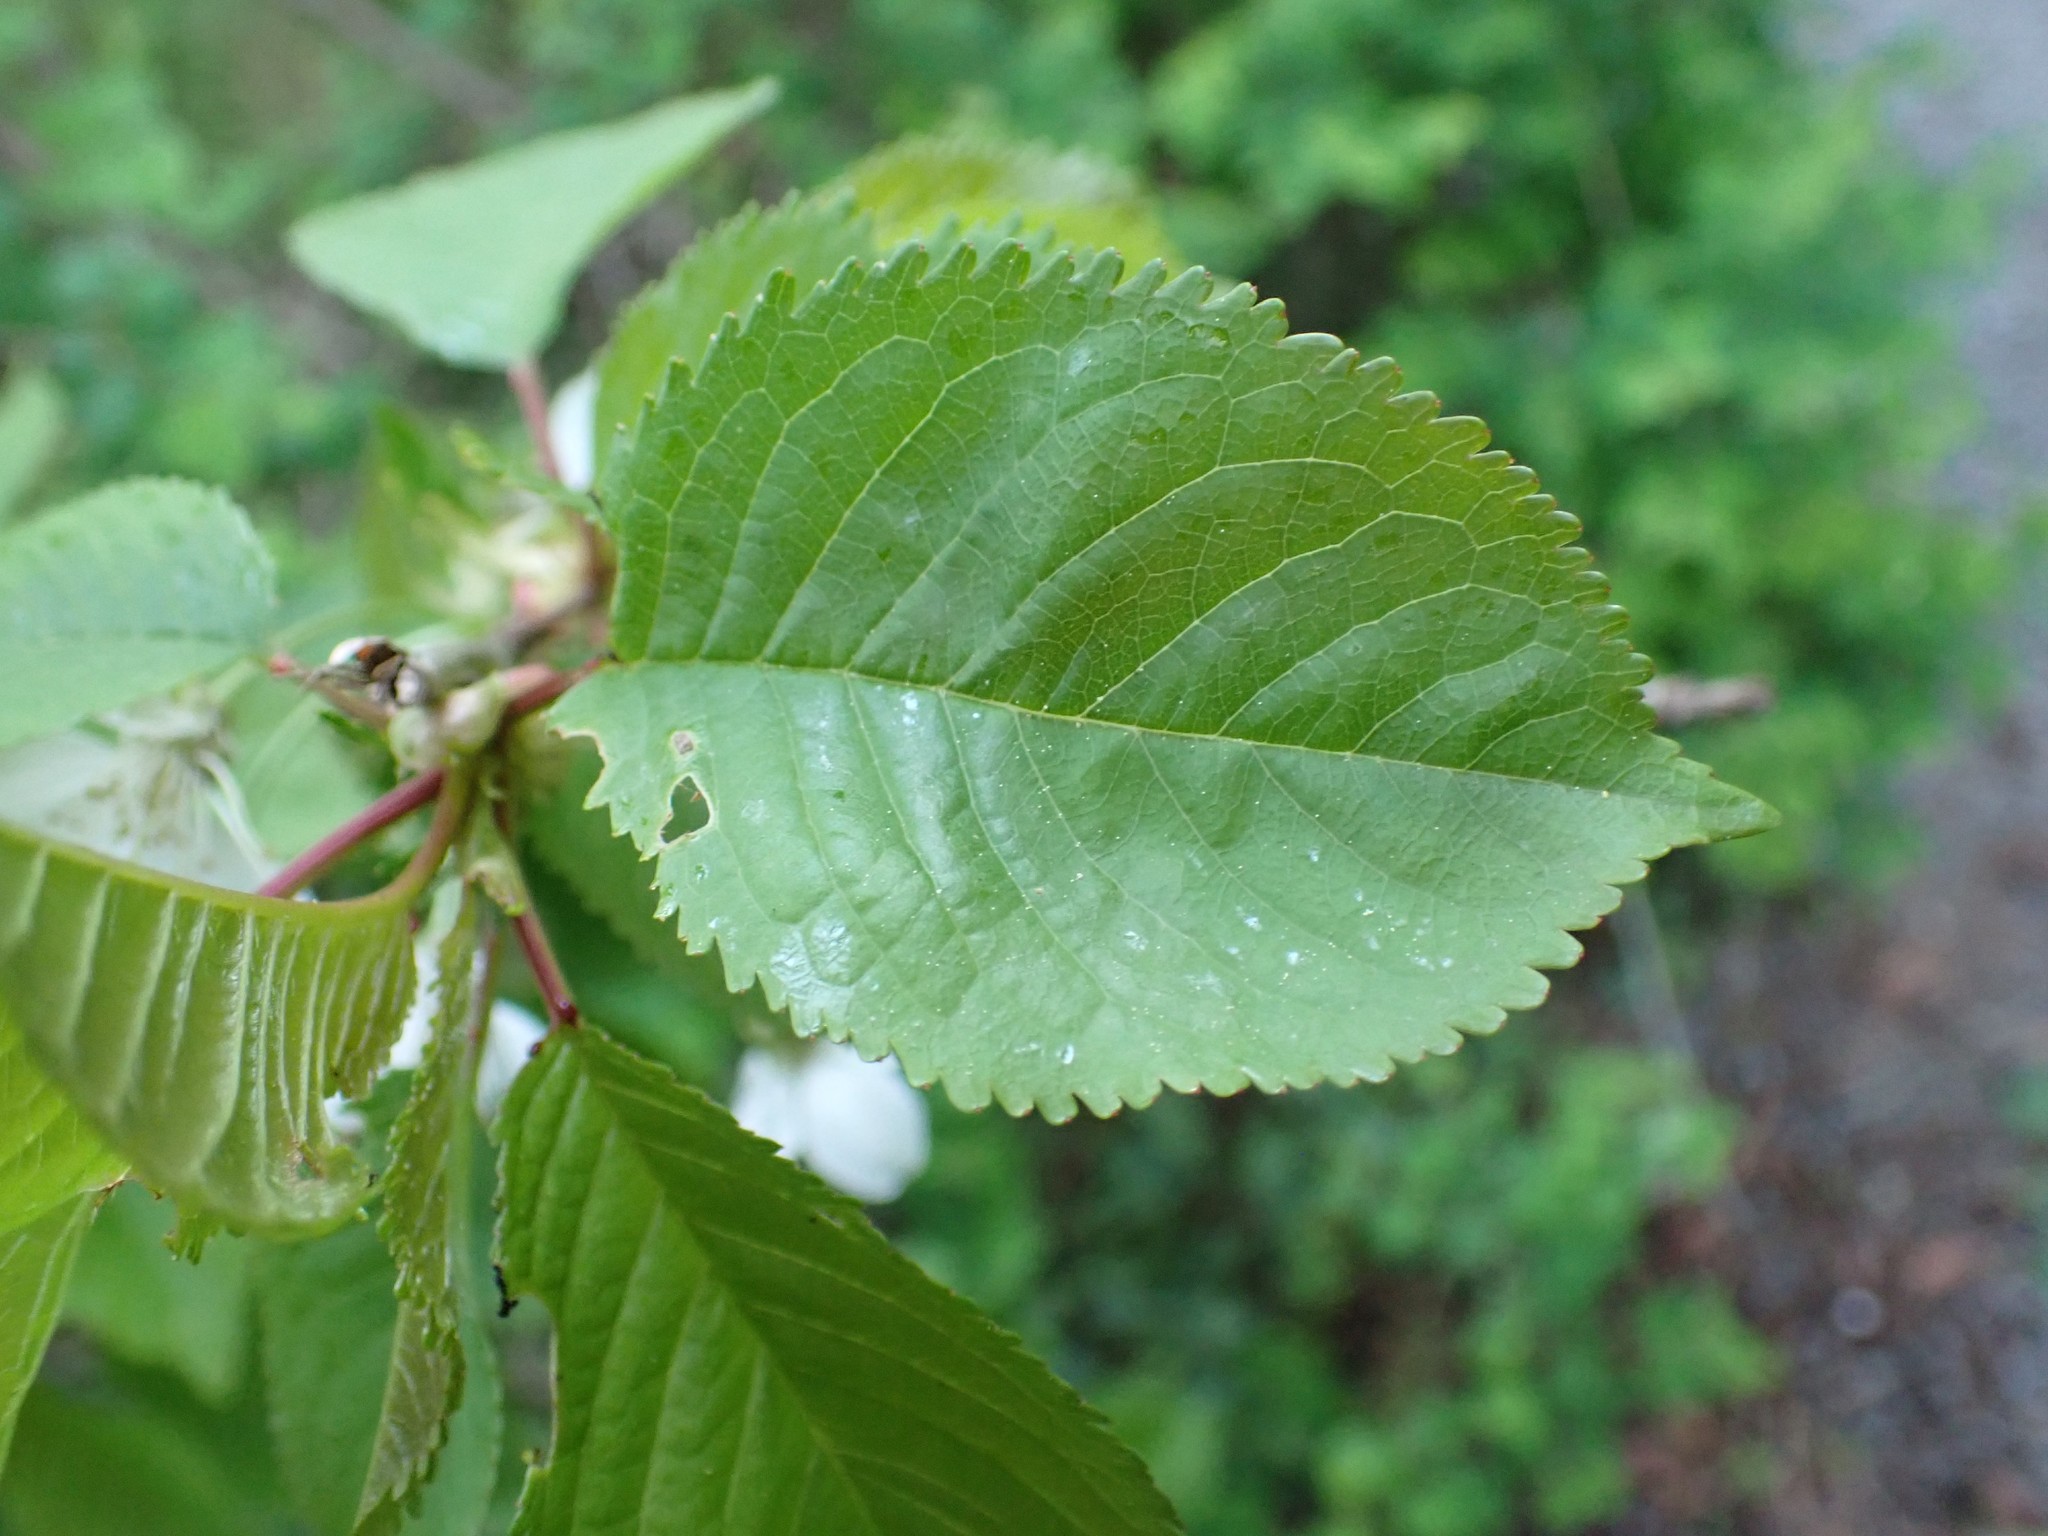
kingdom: Plantae
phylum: Tracheophyta
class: Magnoliopsida
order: Rosales
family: Rosaceae
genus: Prunus
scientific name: Prunus avium
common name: Sweet cherry
